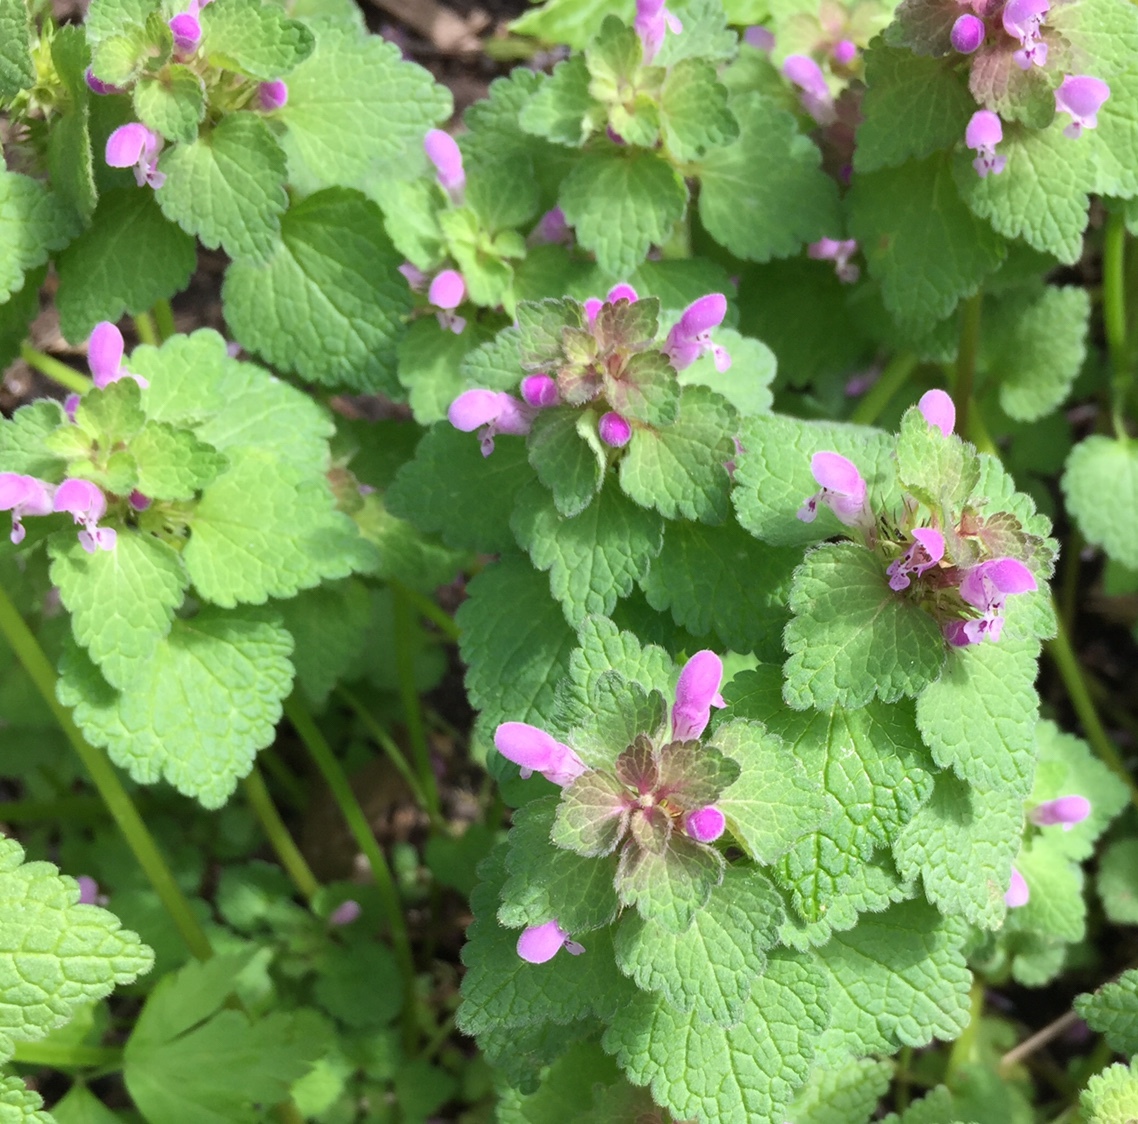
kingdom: Plantae
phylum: Tracheophyta
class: Magnoliopsida
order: Lamiales
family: Lamiaceae
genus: Lamium
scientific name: Lamium purpureum
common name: Red dead-nettle
